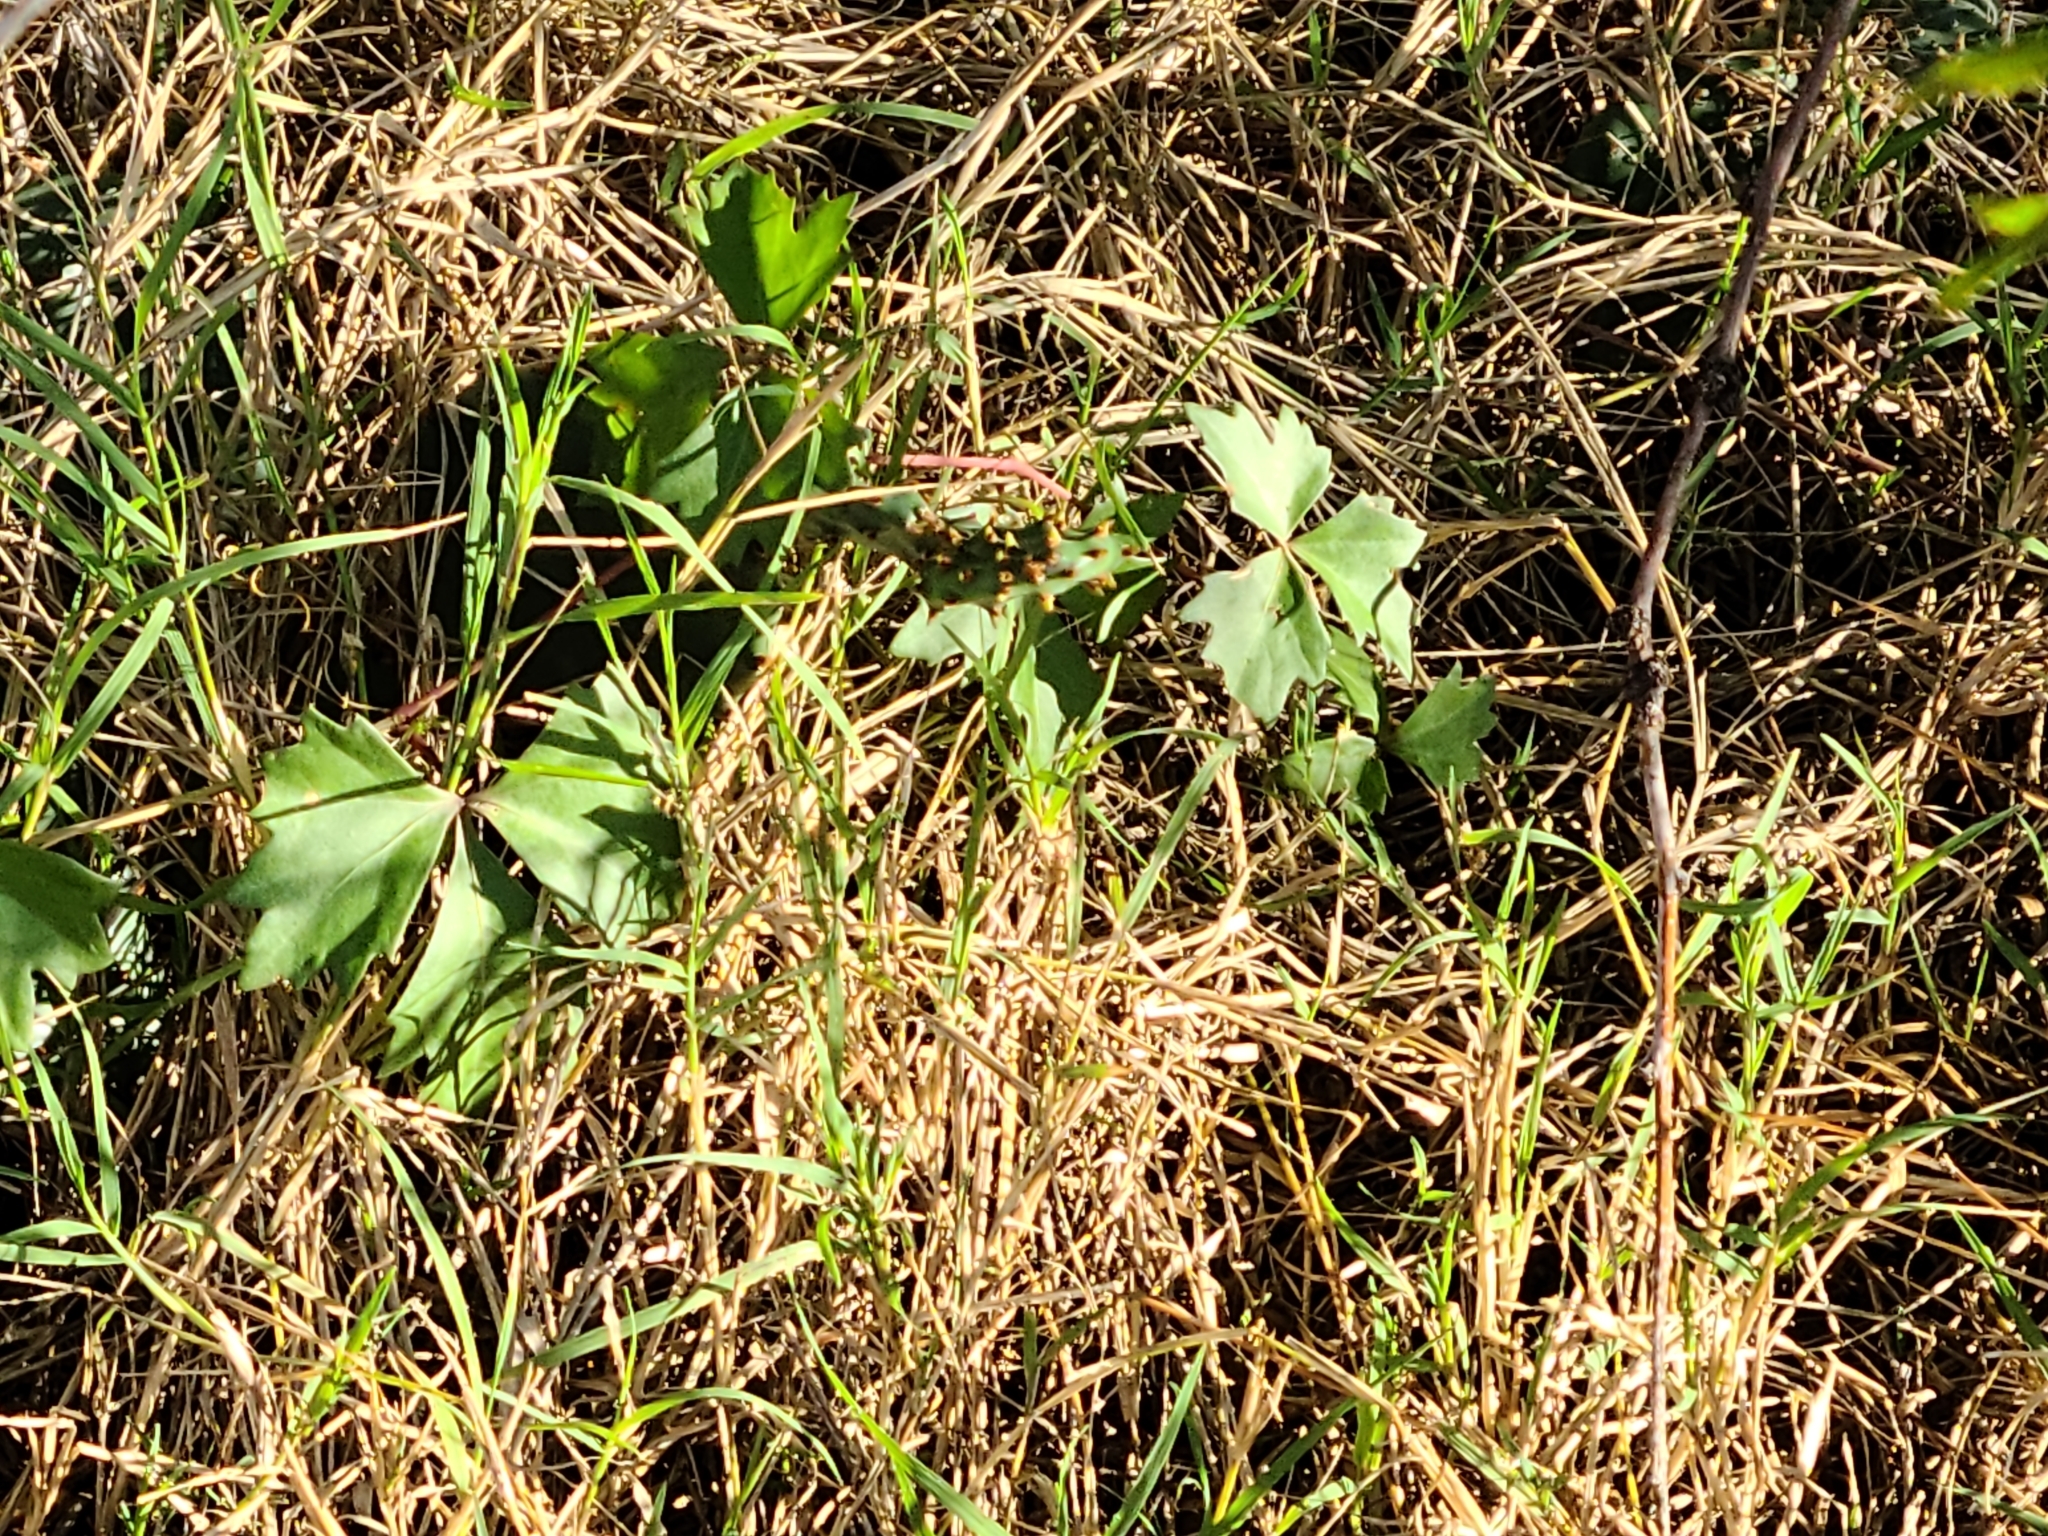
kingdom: Plantae
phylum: Tracheophyta
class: Magnoliopsida
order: Vitales
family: Vitaceae
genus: Cissus
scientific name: Cissus trifoliata
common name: Vine-sorrel
